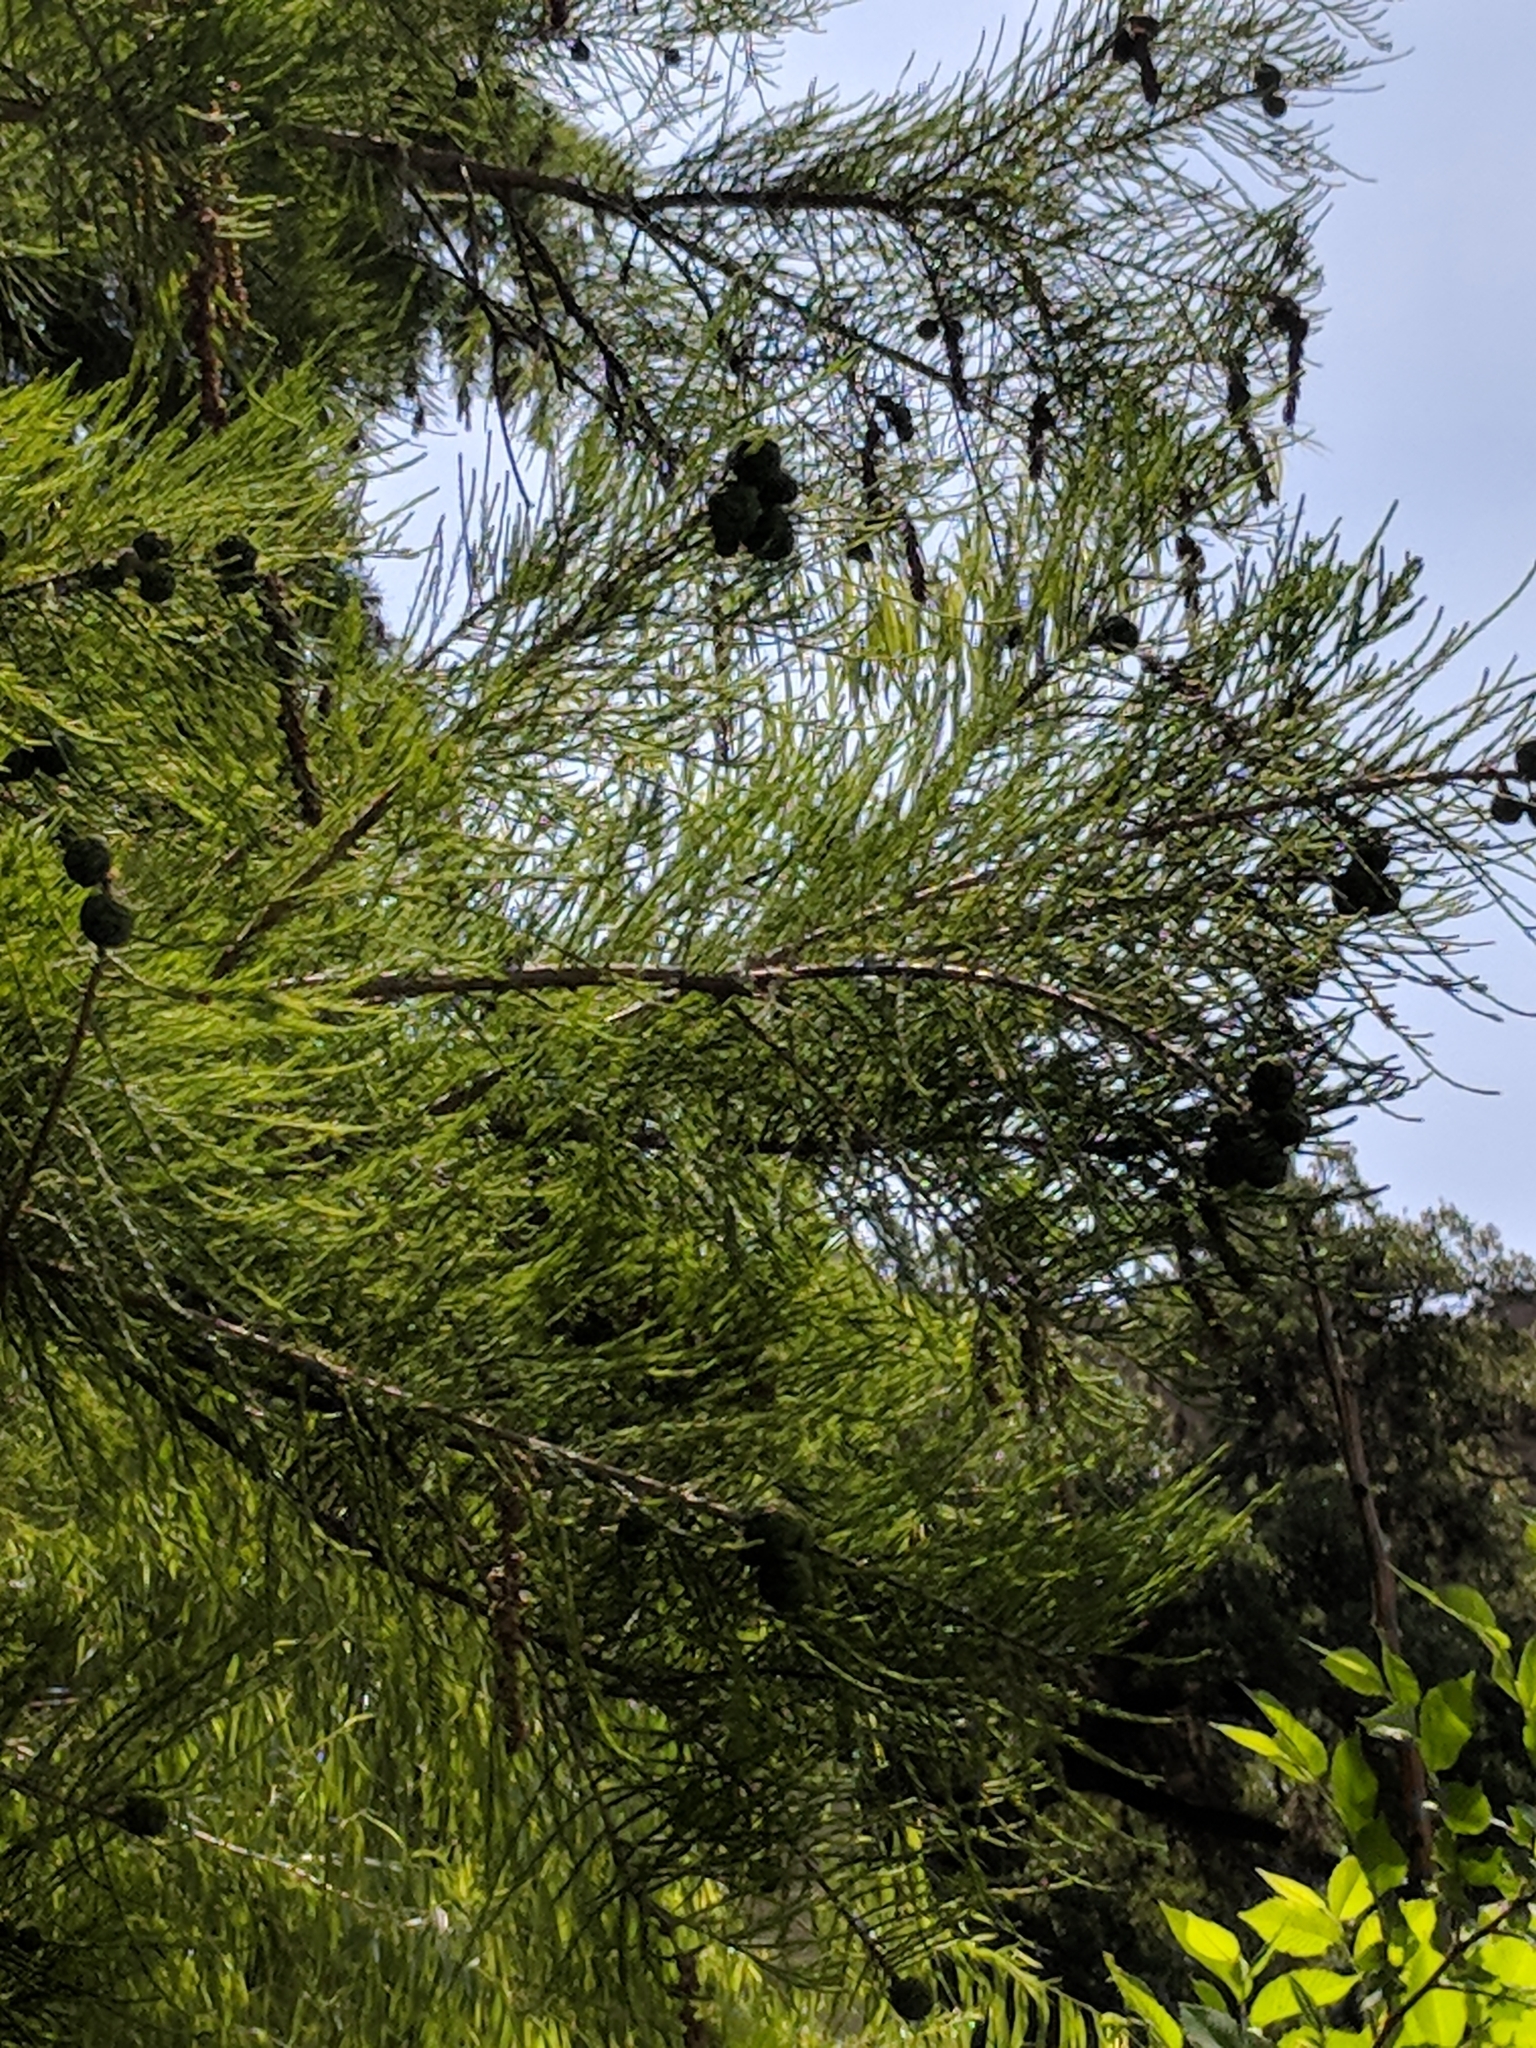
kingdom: Plantae
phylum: Tracheophyta
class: Pinopsida
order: Pinales
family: Cupressaceae
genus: Taxodium
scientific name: Taxodium distichum
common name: Bald cypress
